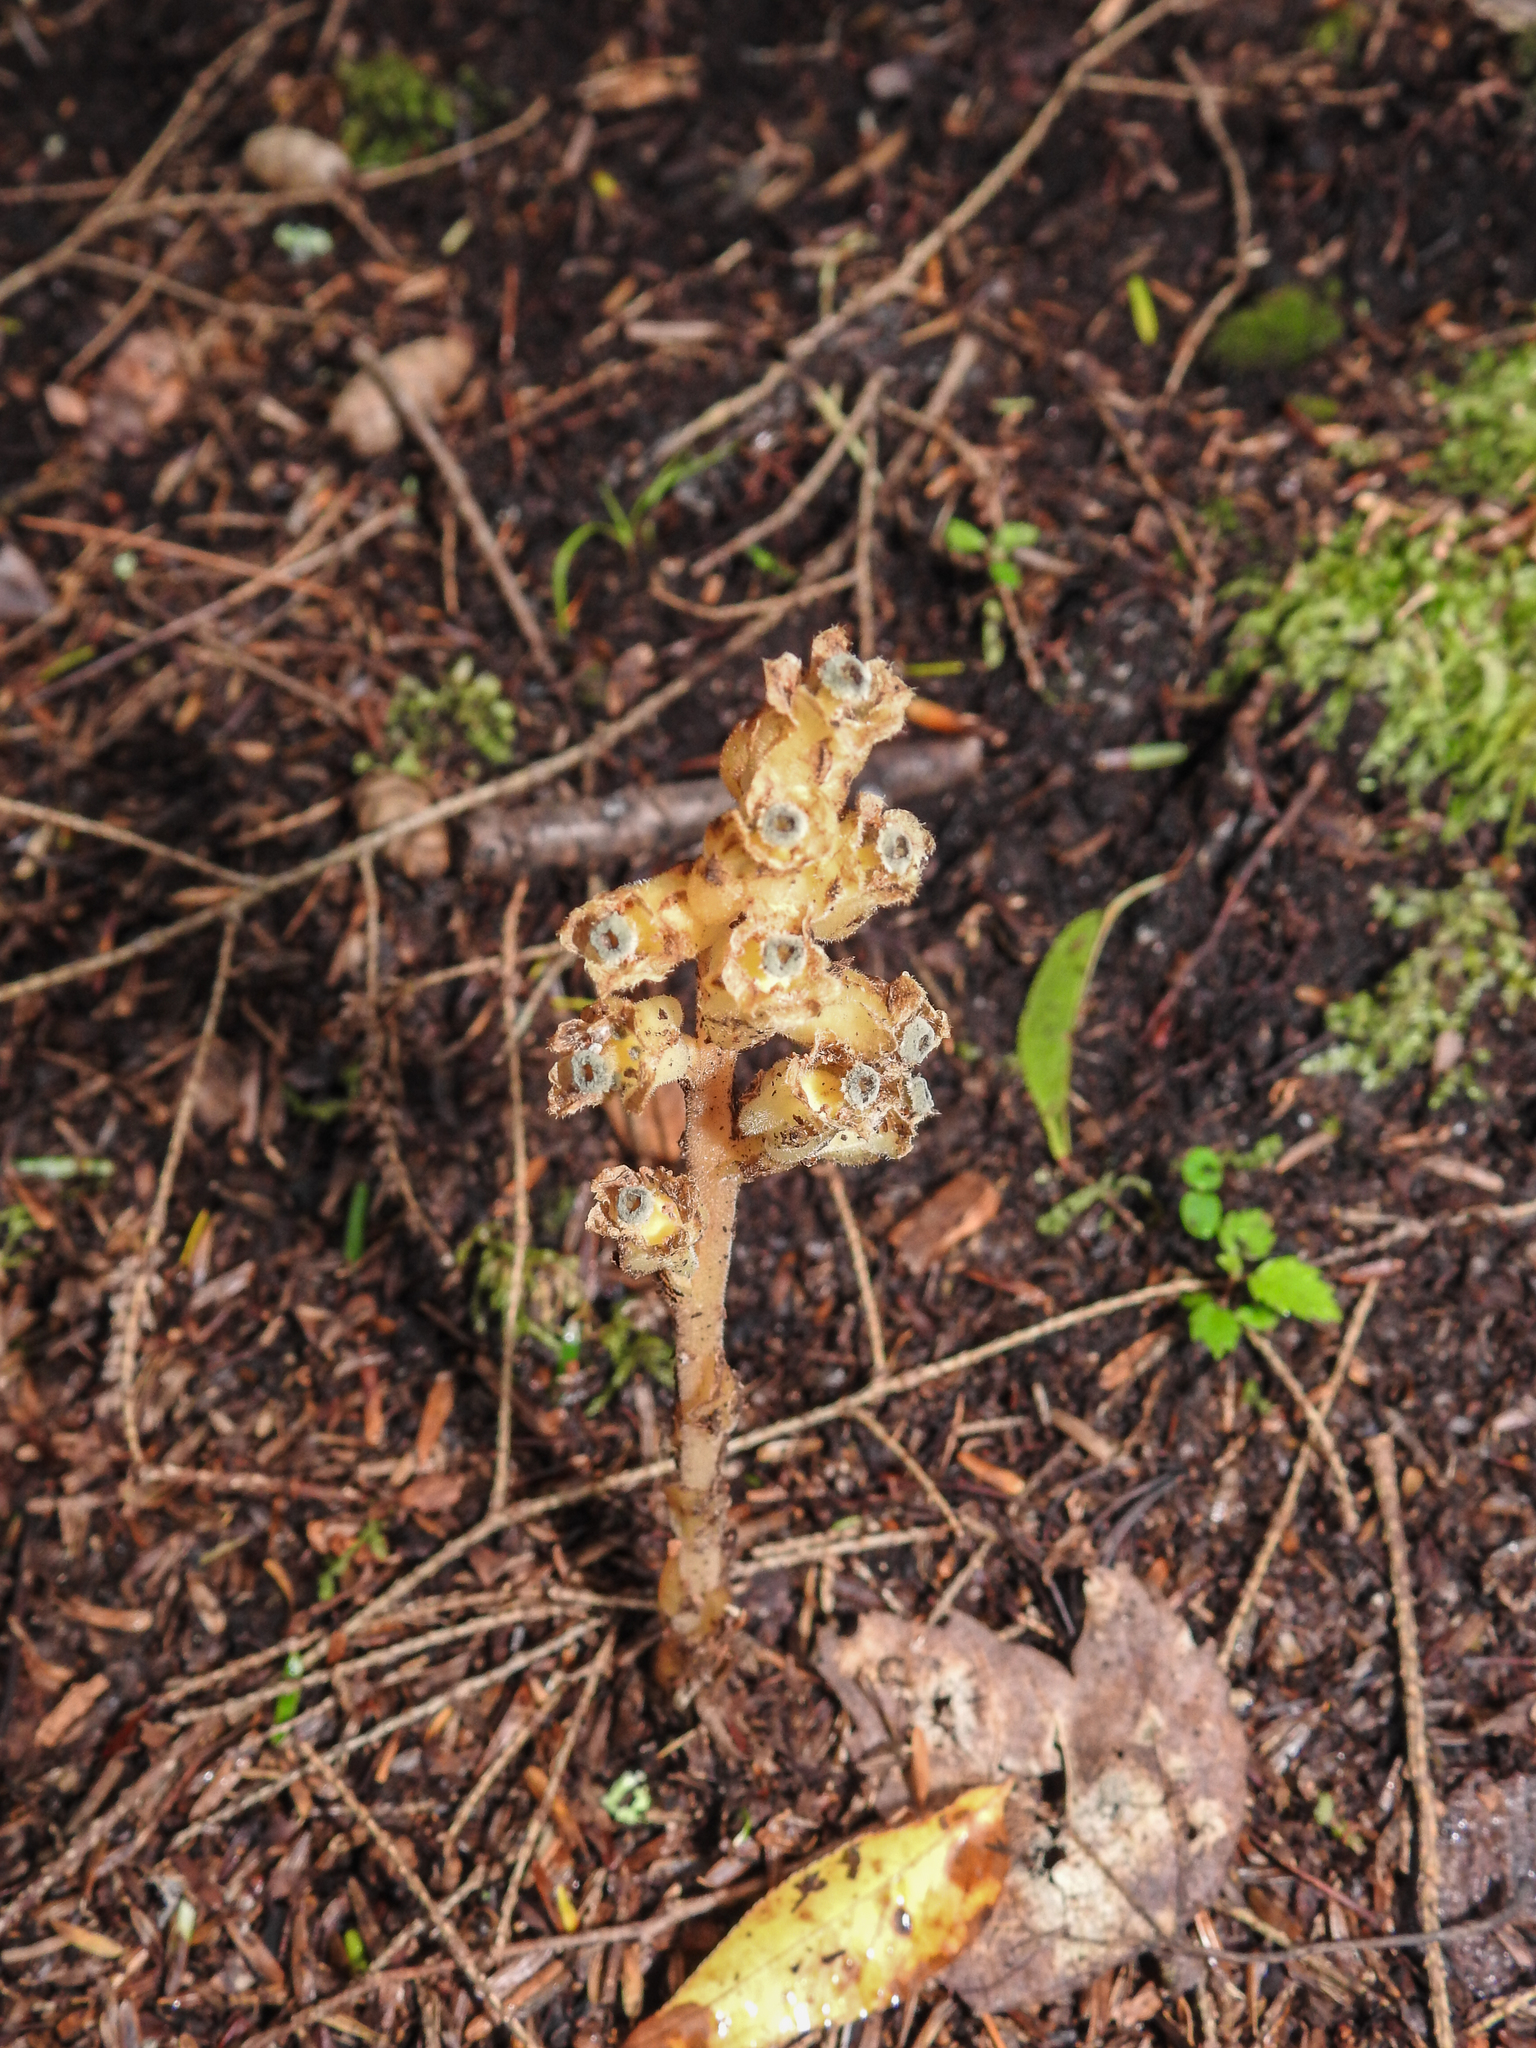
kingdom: Plantae
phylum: Tracheophyta
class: Magnoliopsida
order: Ericales
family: Ericaceae
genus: Hypopitys
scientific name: Hypopitys monotropa
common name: Yellow bird's-nest
